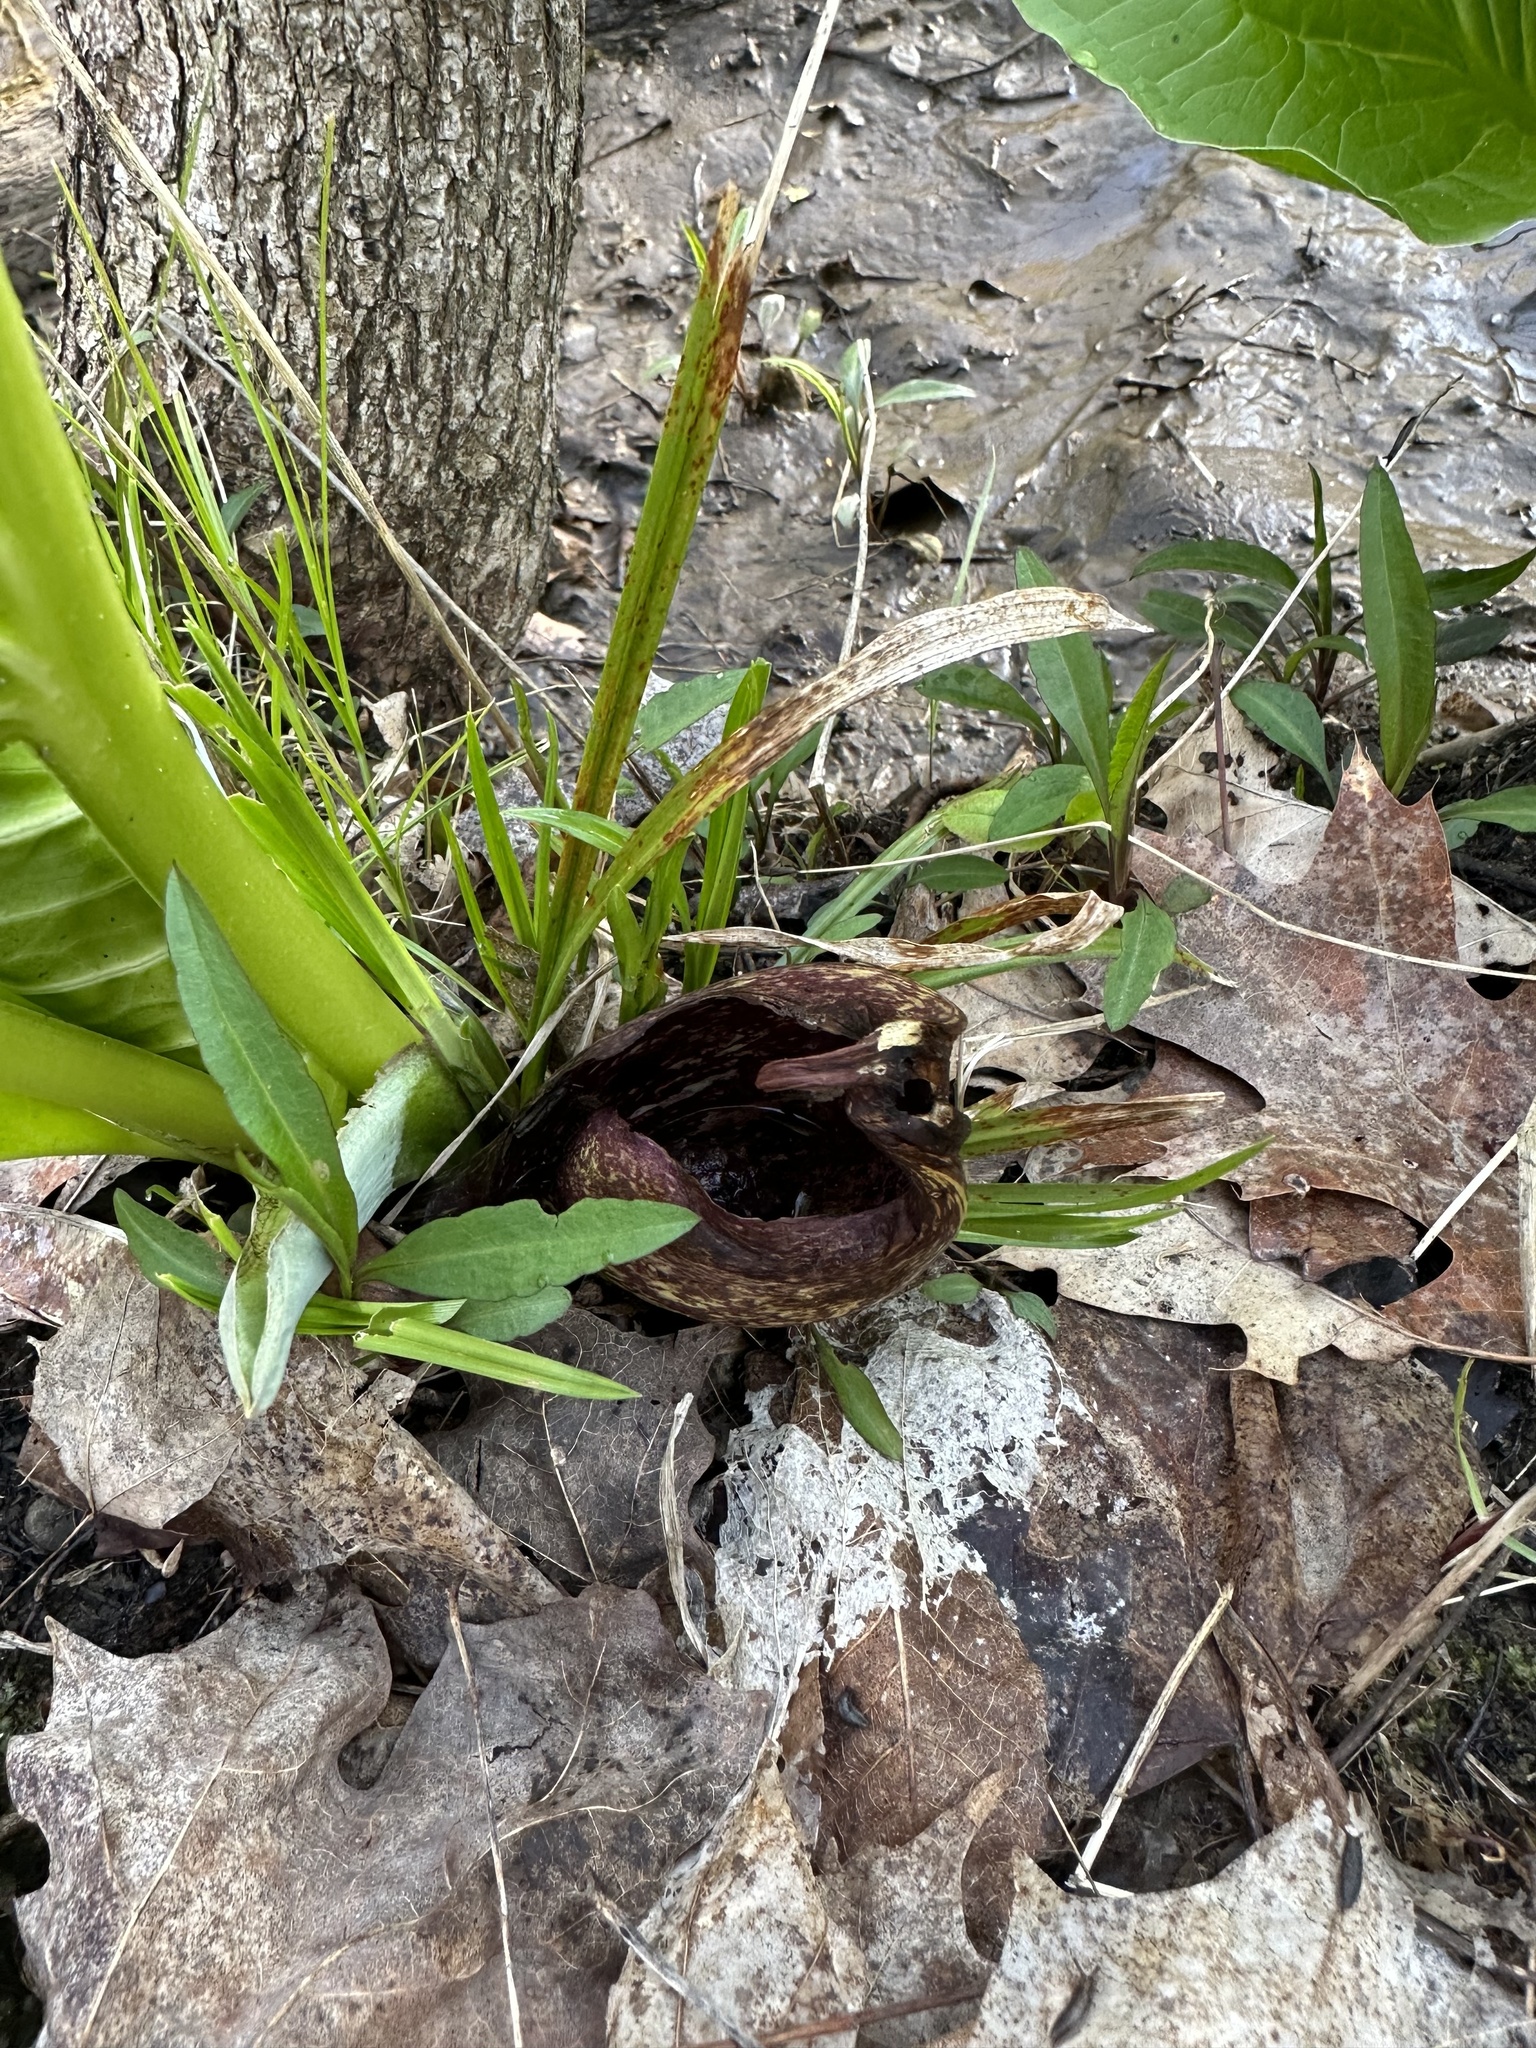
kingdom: Plantae
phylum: Tracheophyta
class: Liliopsida
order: Alismatales
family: Araceae
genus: Symplocarpus
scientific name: Symplocarpus foetidus
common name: Eastern skunk cabbage
